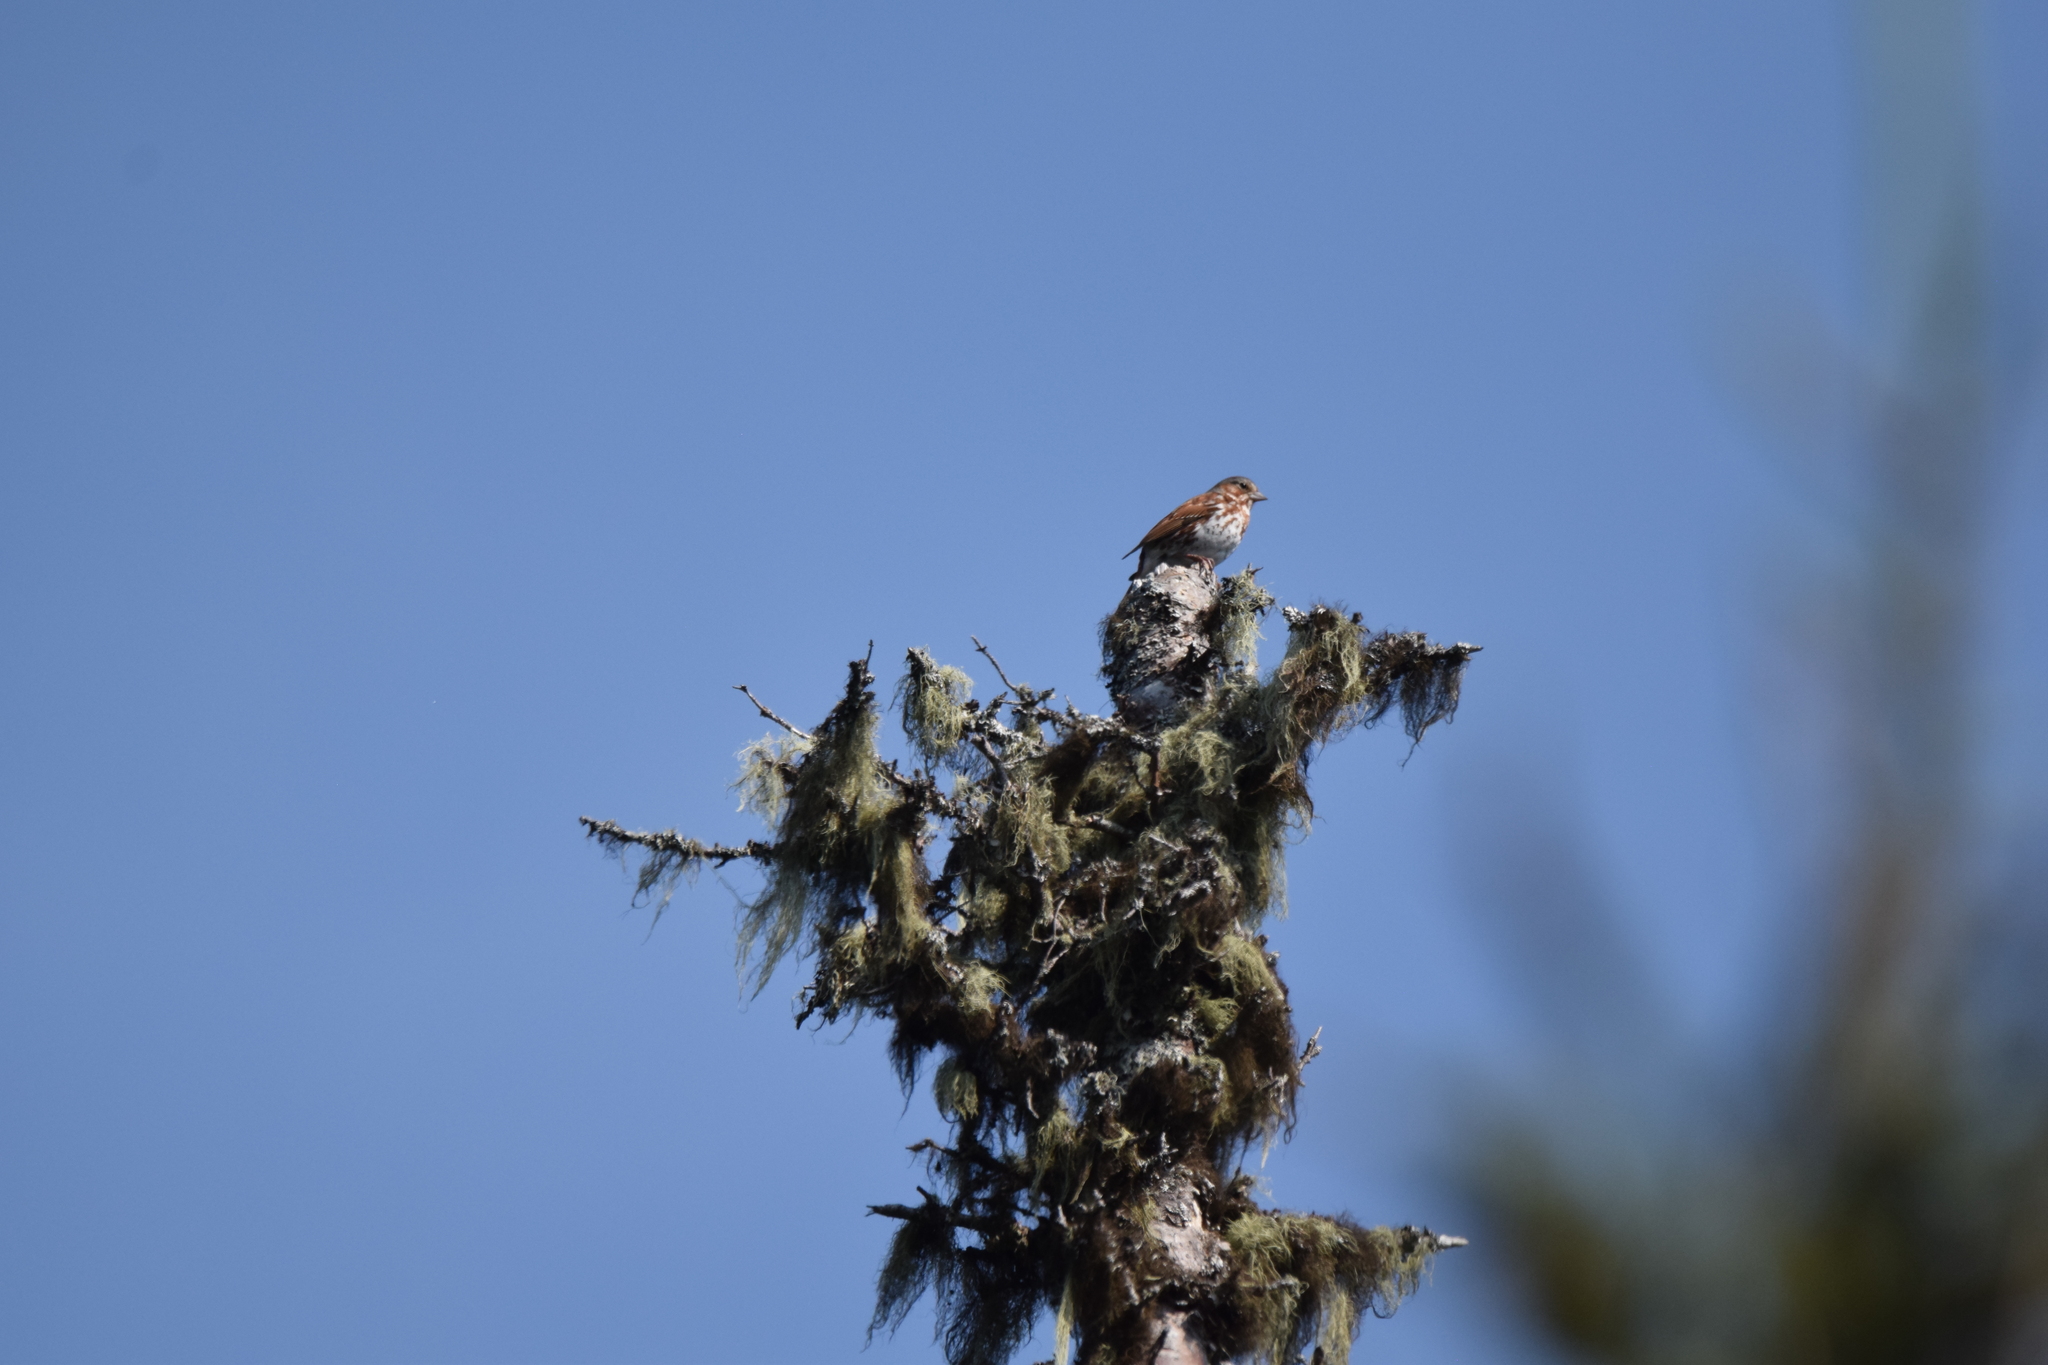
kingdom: Animalia
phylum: Chordata
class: Aves
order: Passeriformes
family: Passerellidae
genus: Passerella
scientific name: Passerella iliaca
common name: Fox sparrow
